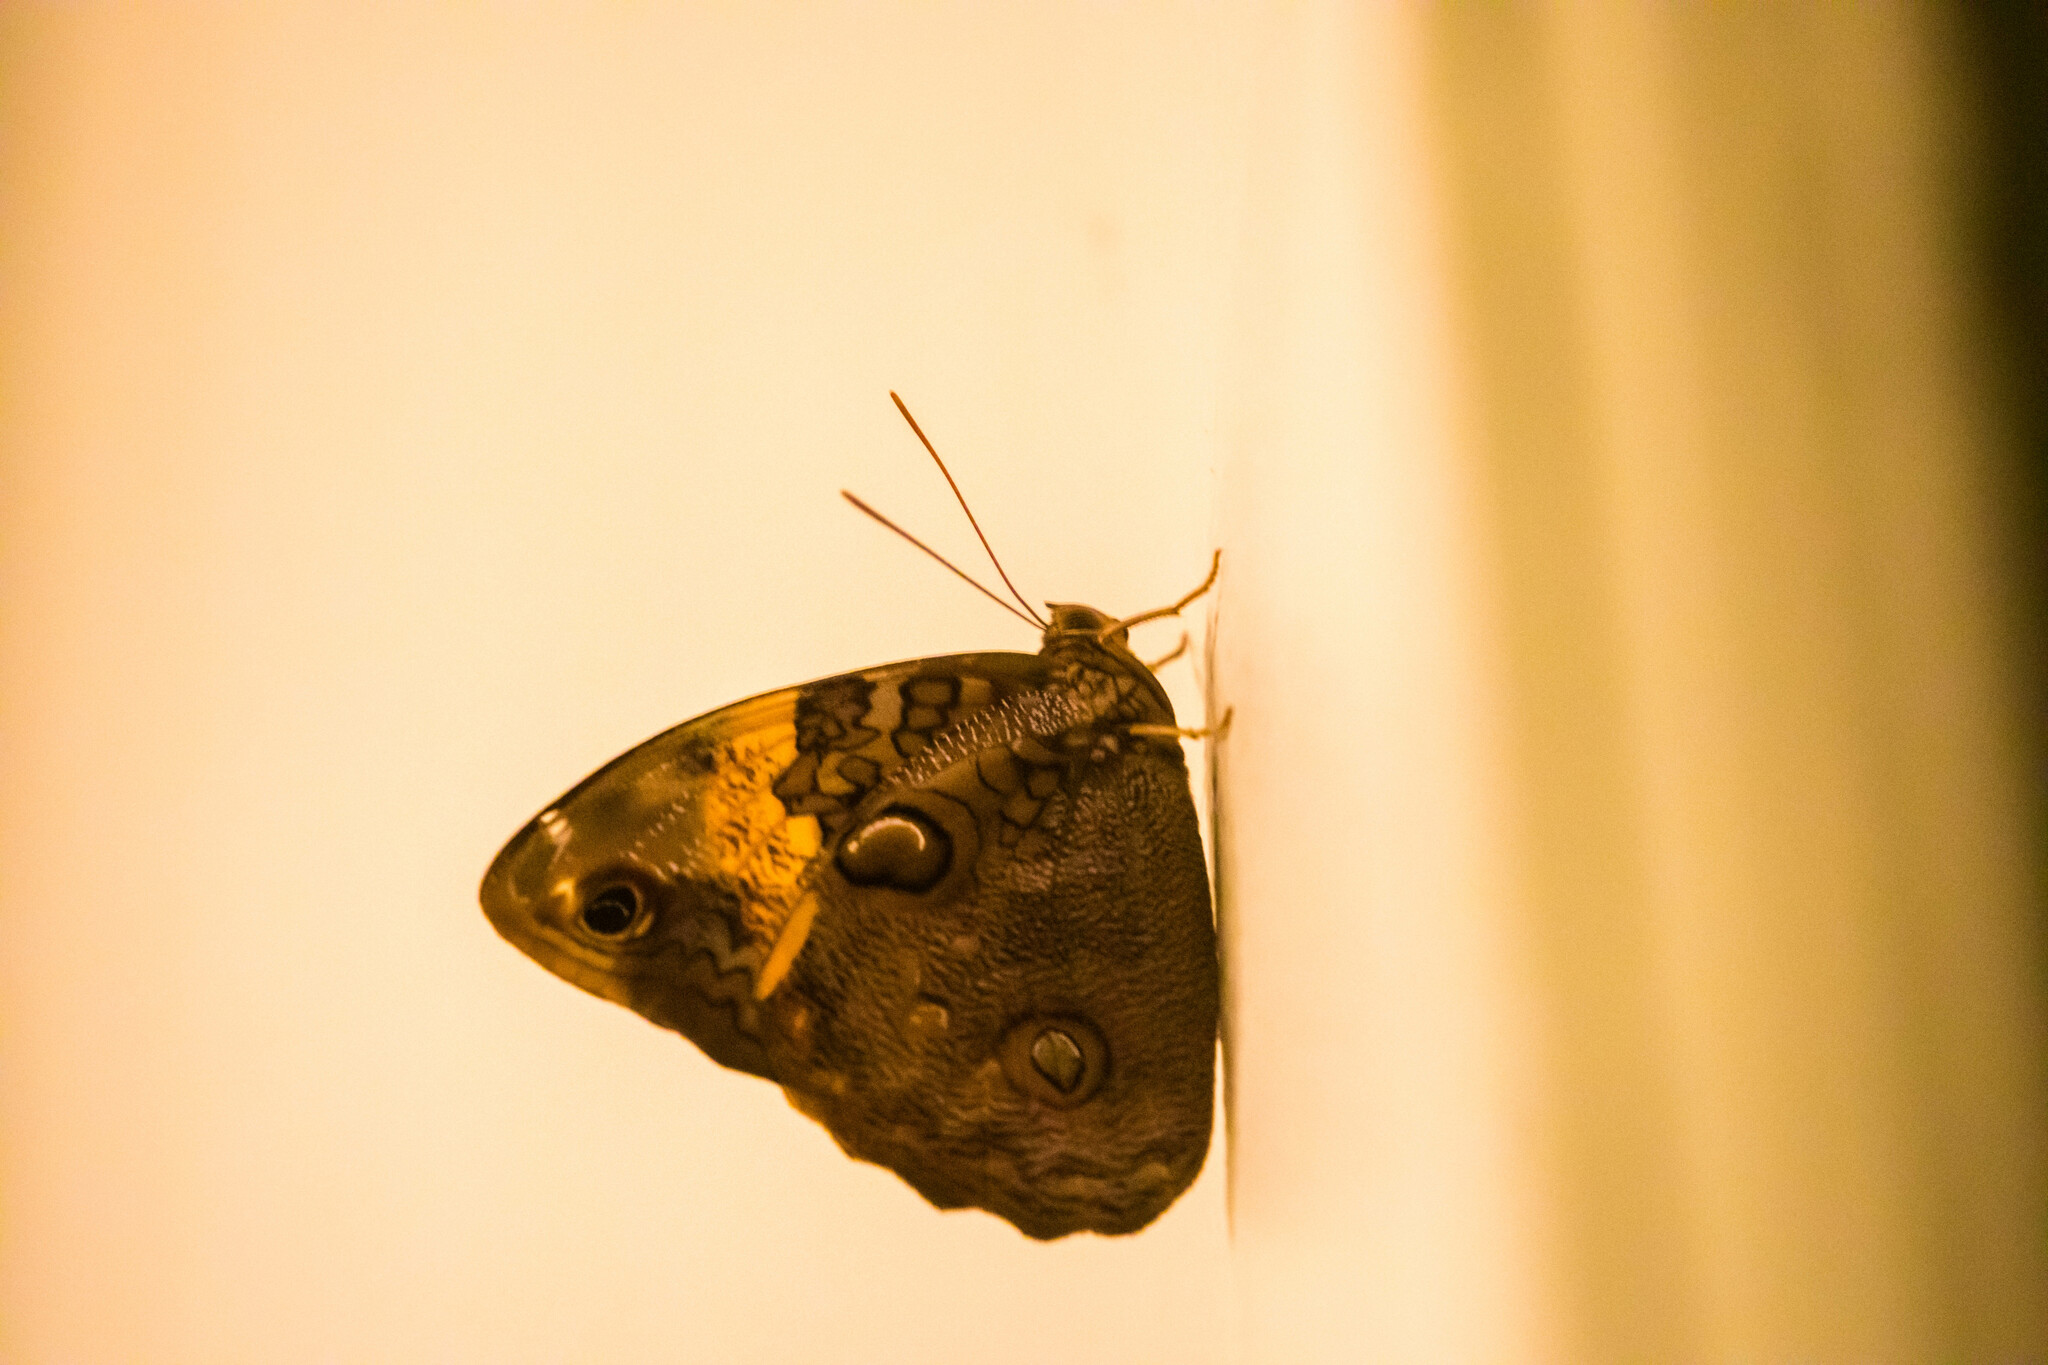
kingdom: Animalia
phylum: Arthropoda
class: Insecta
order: Lepidoptera
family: Nymphalidae
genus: Opsiphanes
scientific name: Opsiphanes cassiae
